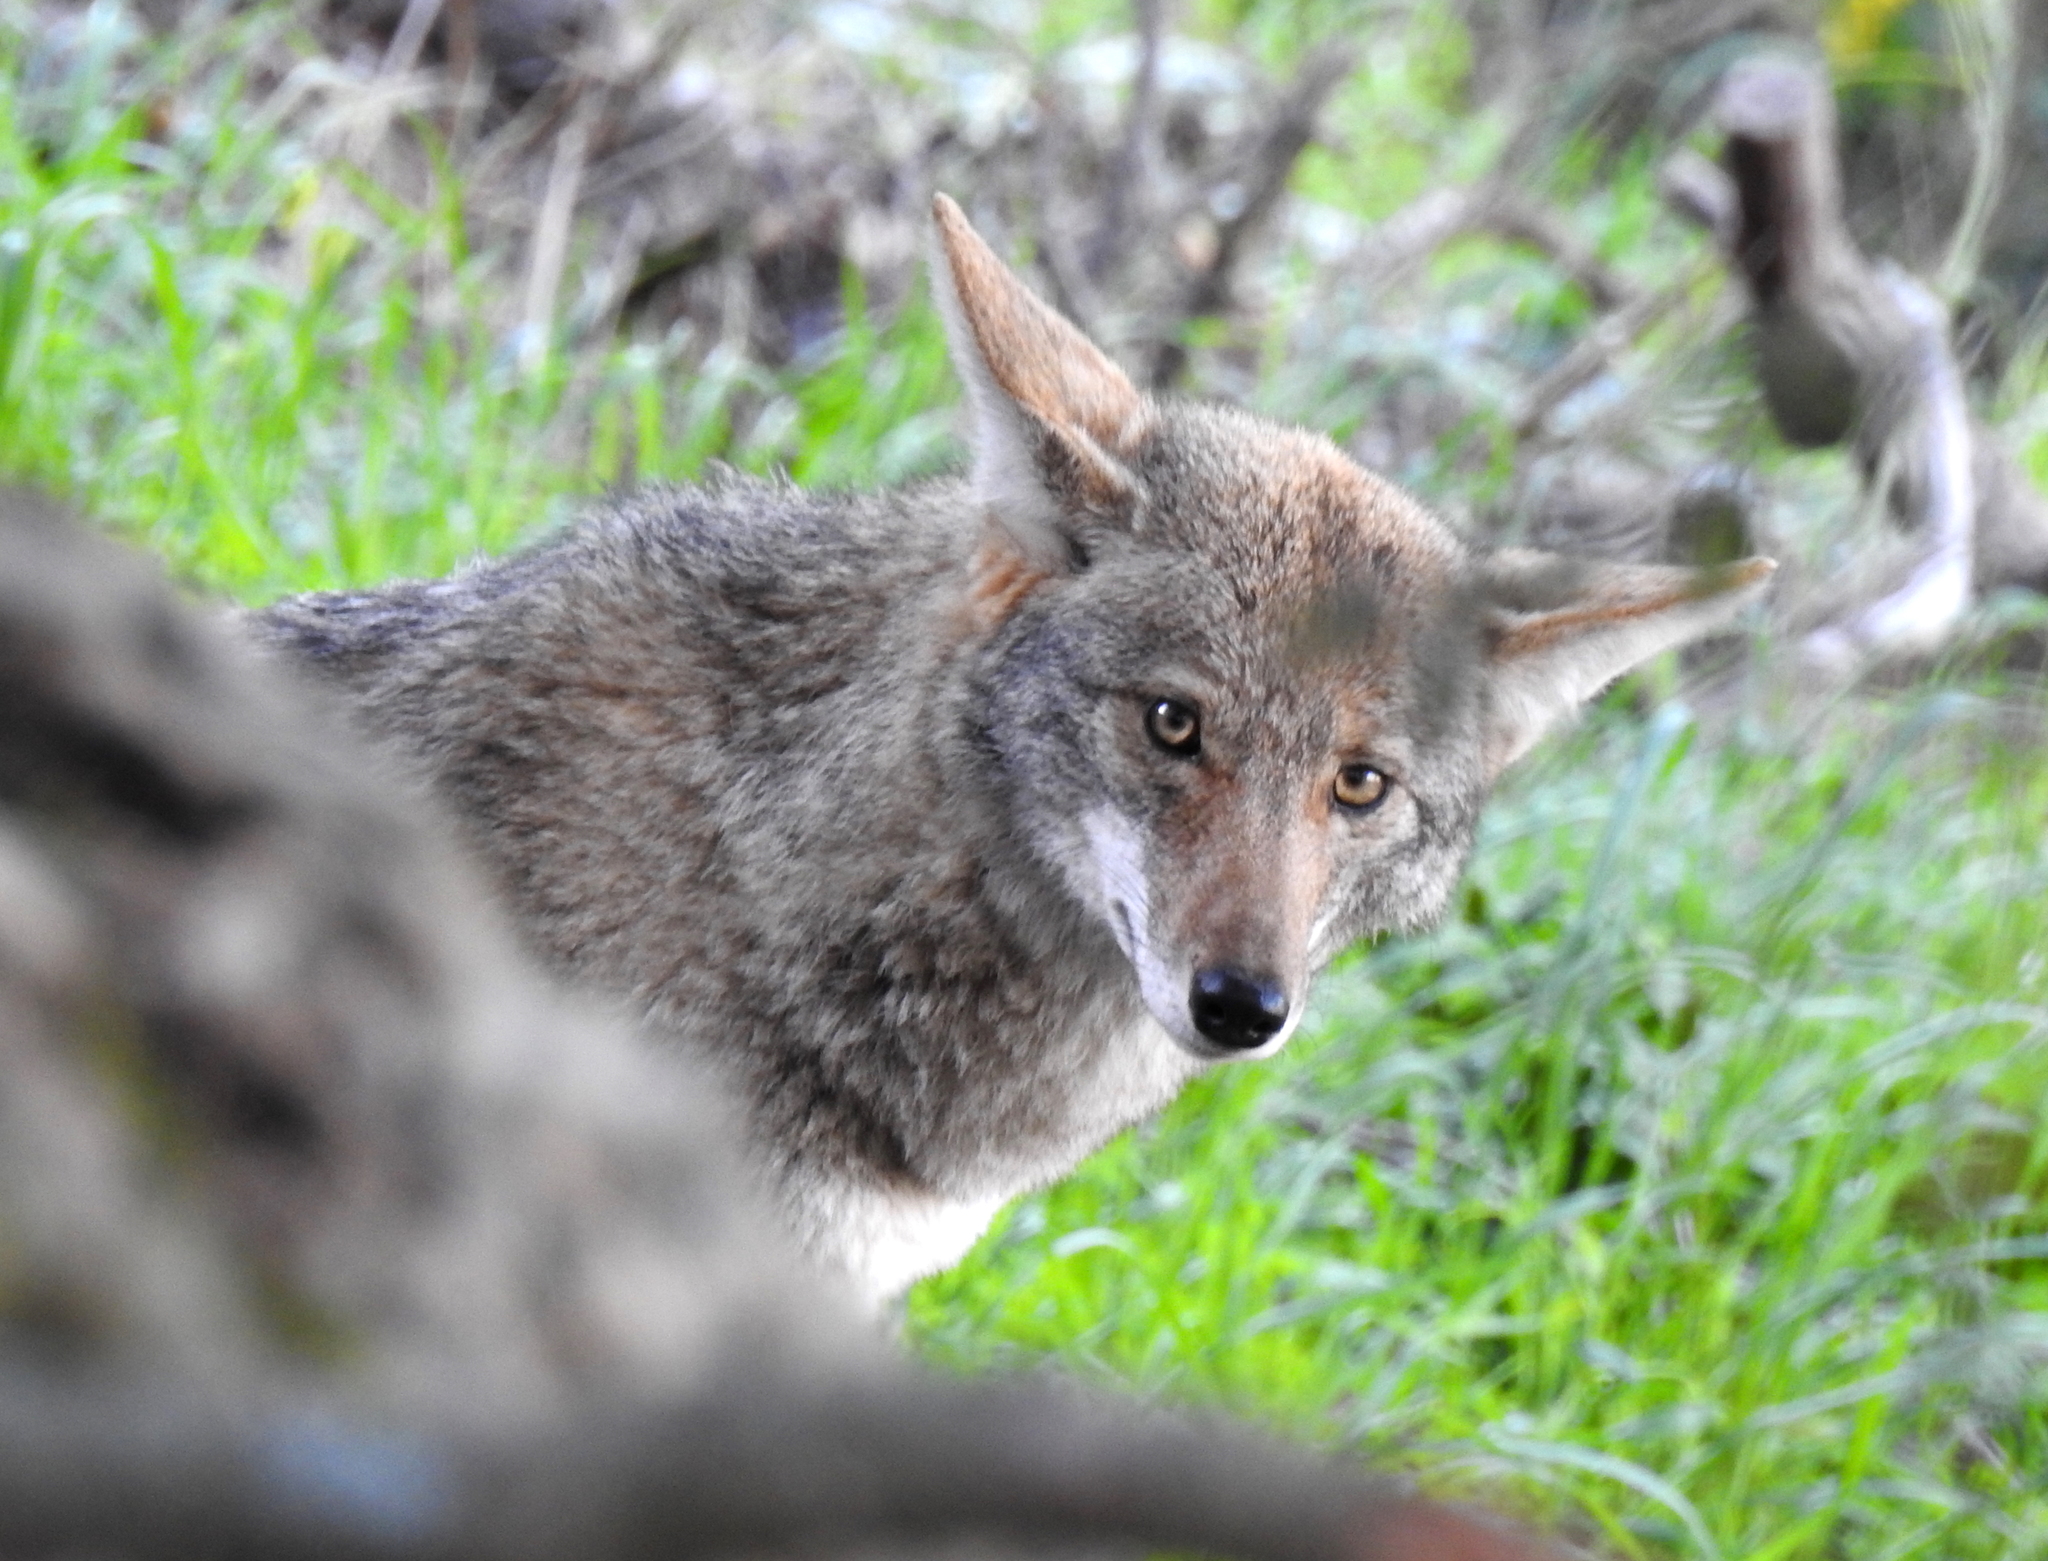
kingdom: Animalia
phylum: Chordata
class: Mammalia
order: Carnivora
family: Canidae
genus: Canis
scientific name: Canis latrans
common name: Coyote
